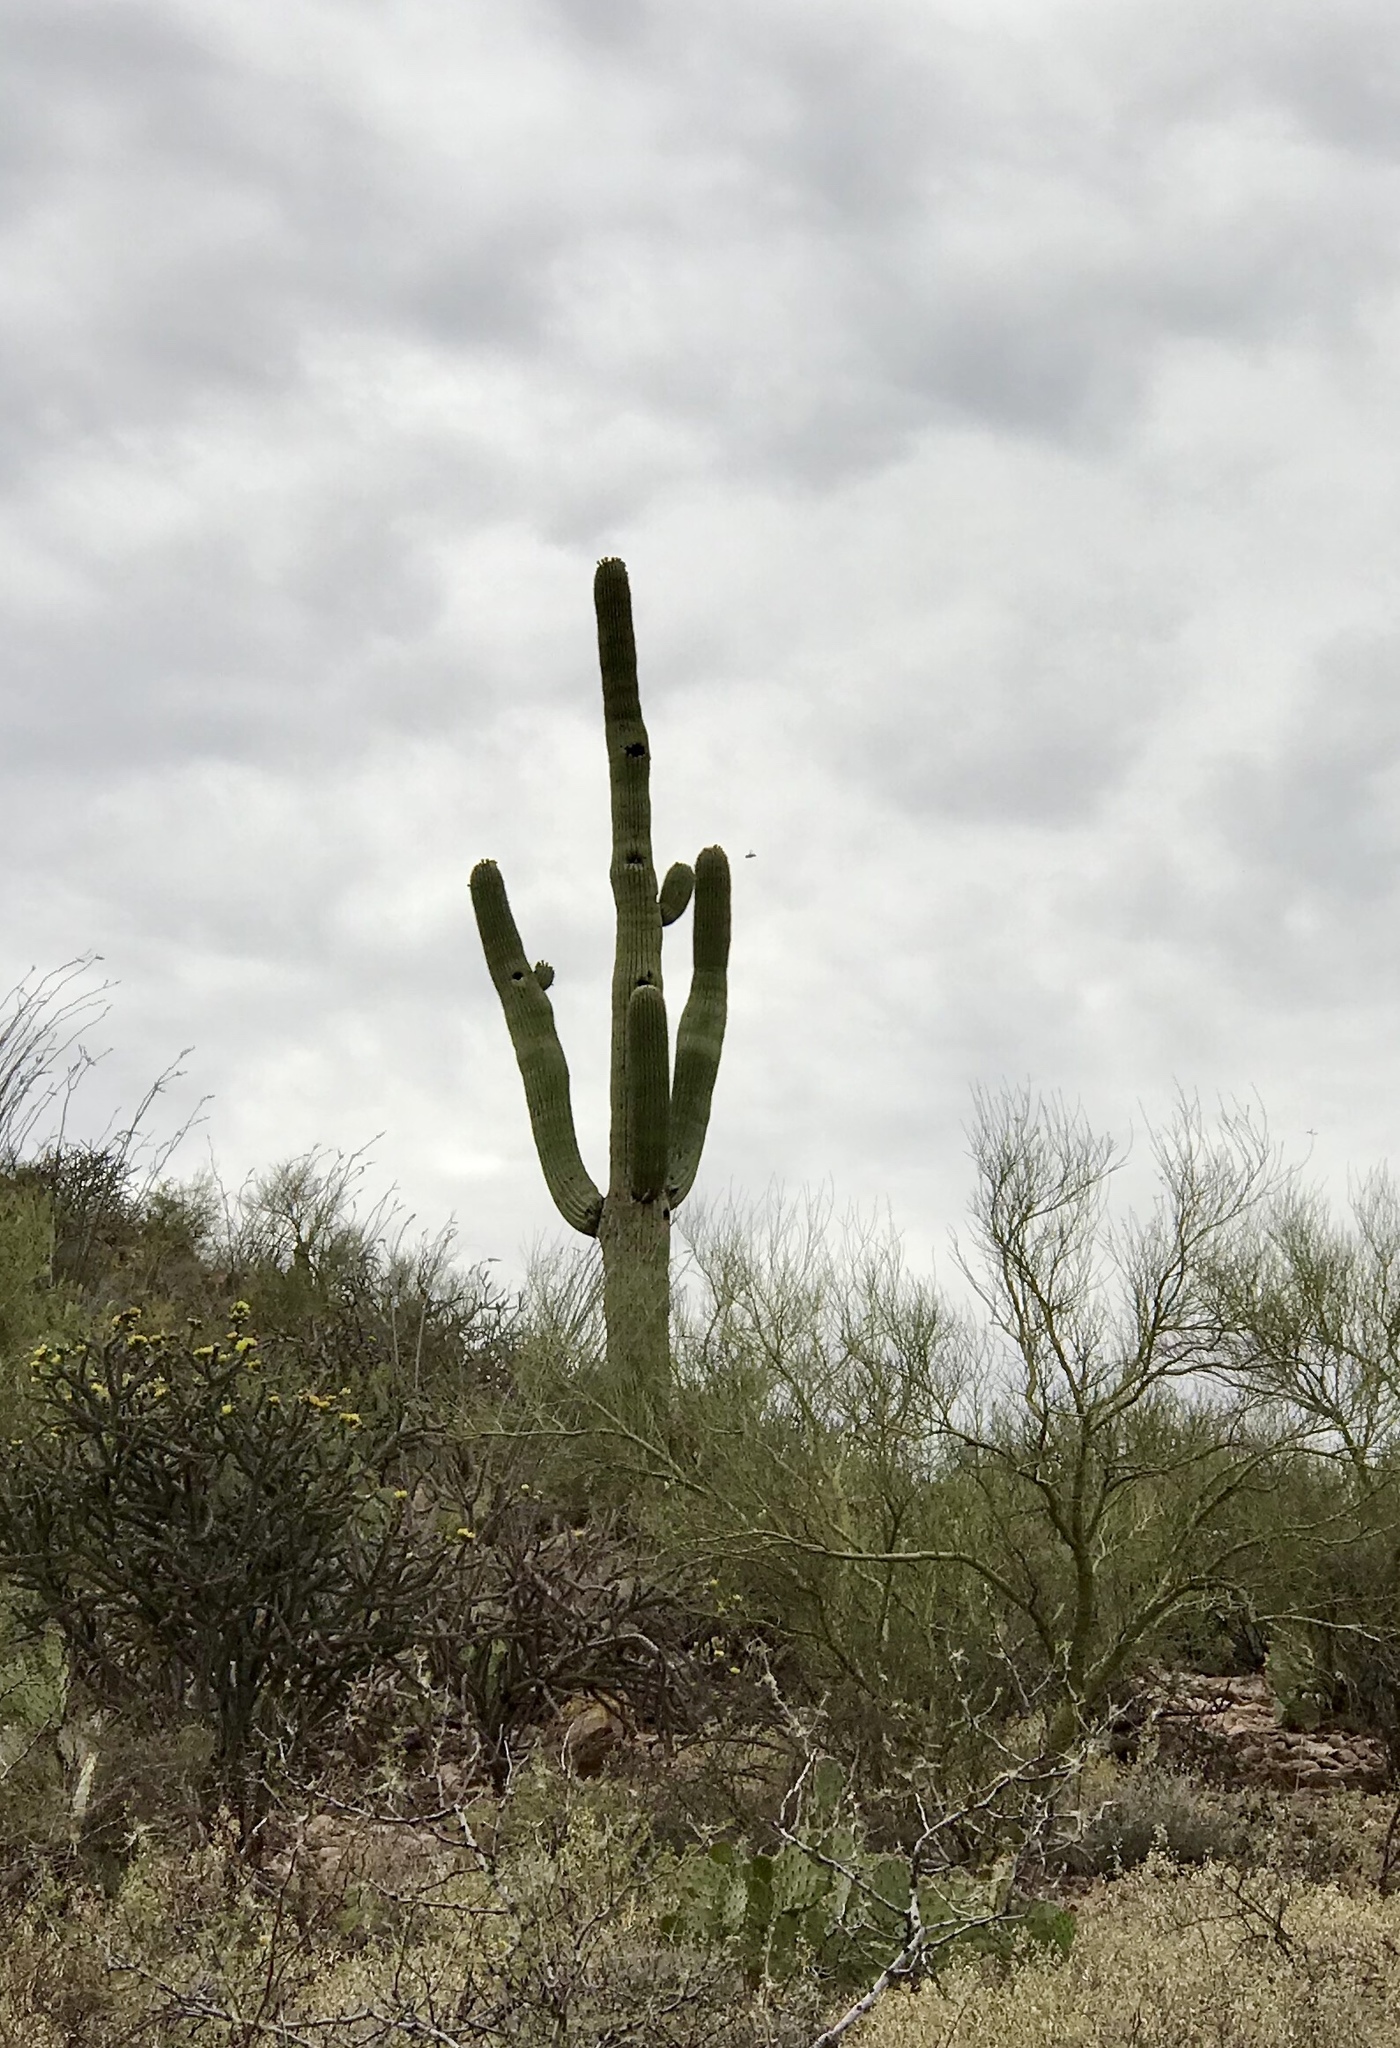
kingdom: Plantae
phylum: Tracheophyta
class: Magnoliopsida
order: Caryophyllales
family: Cactaceae
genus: Carnegiea
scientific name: Carnegiea gigantea
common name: Saguaro
